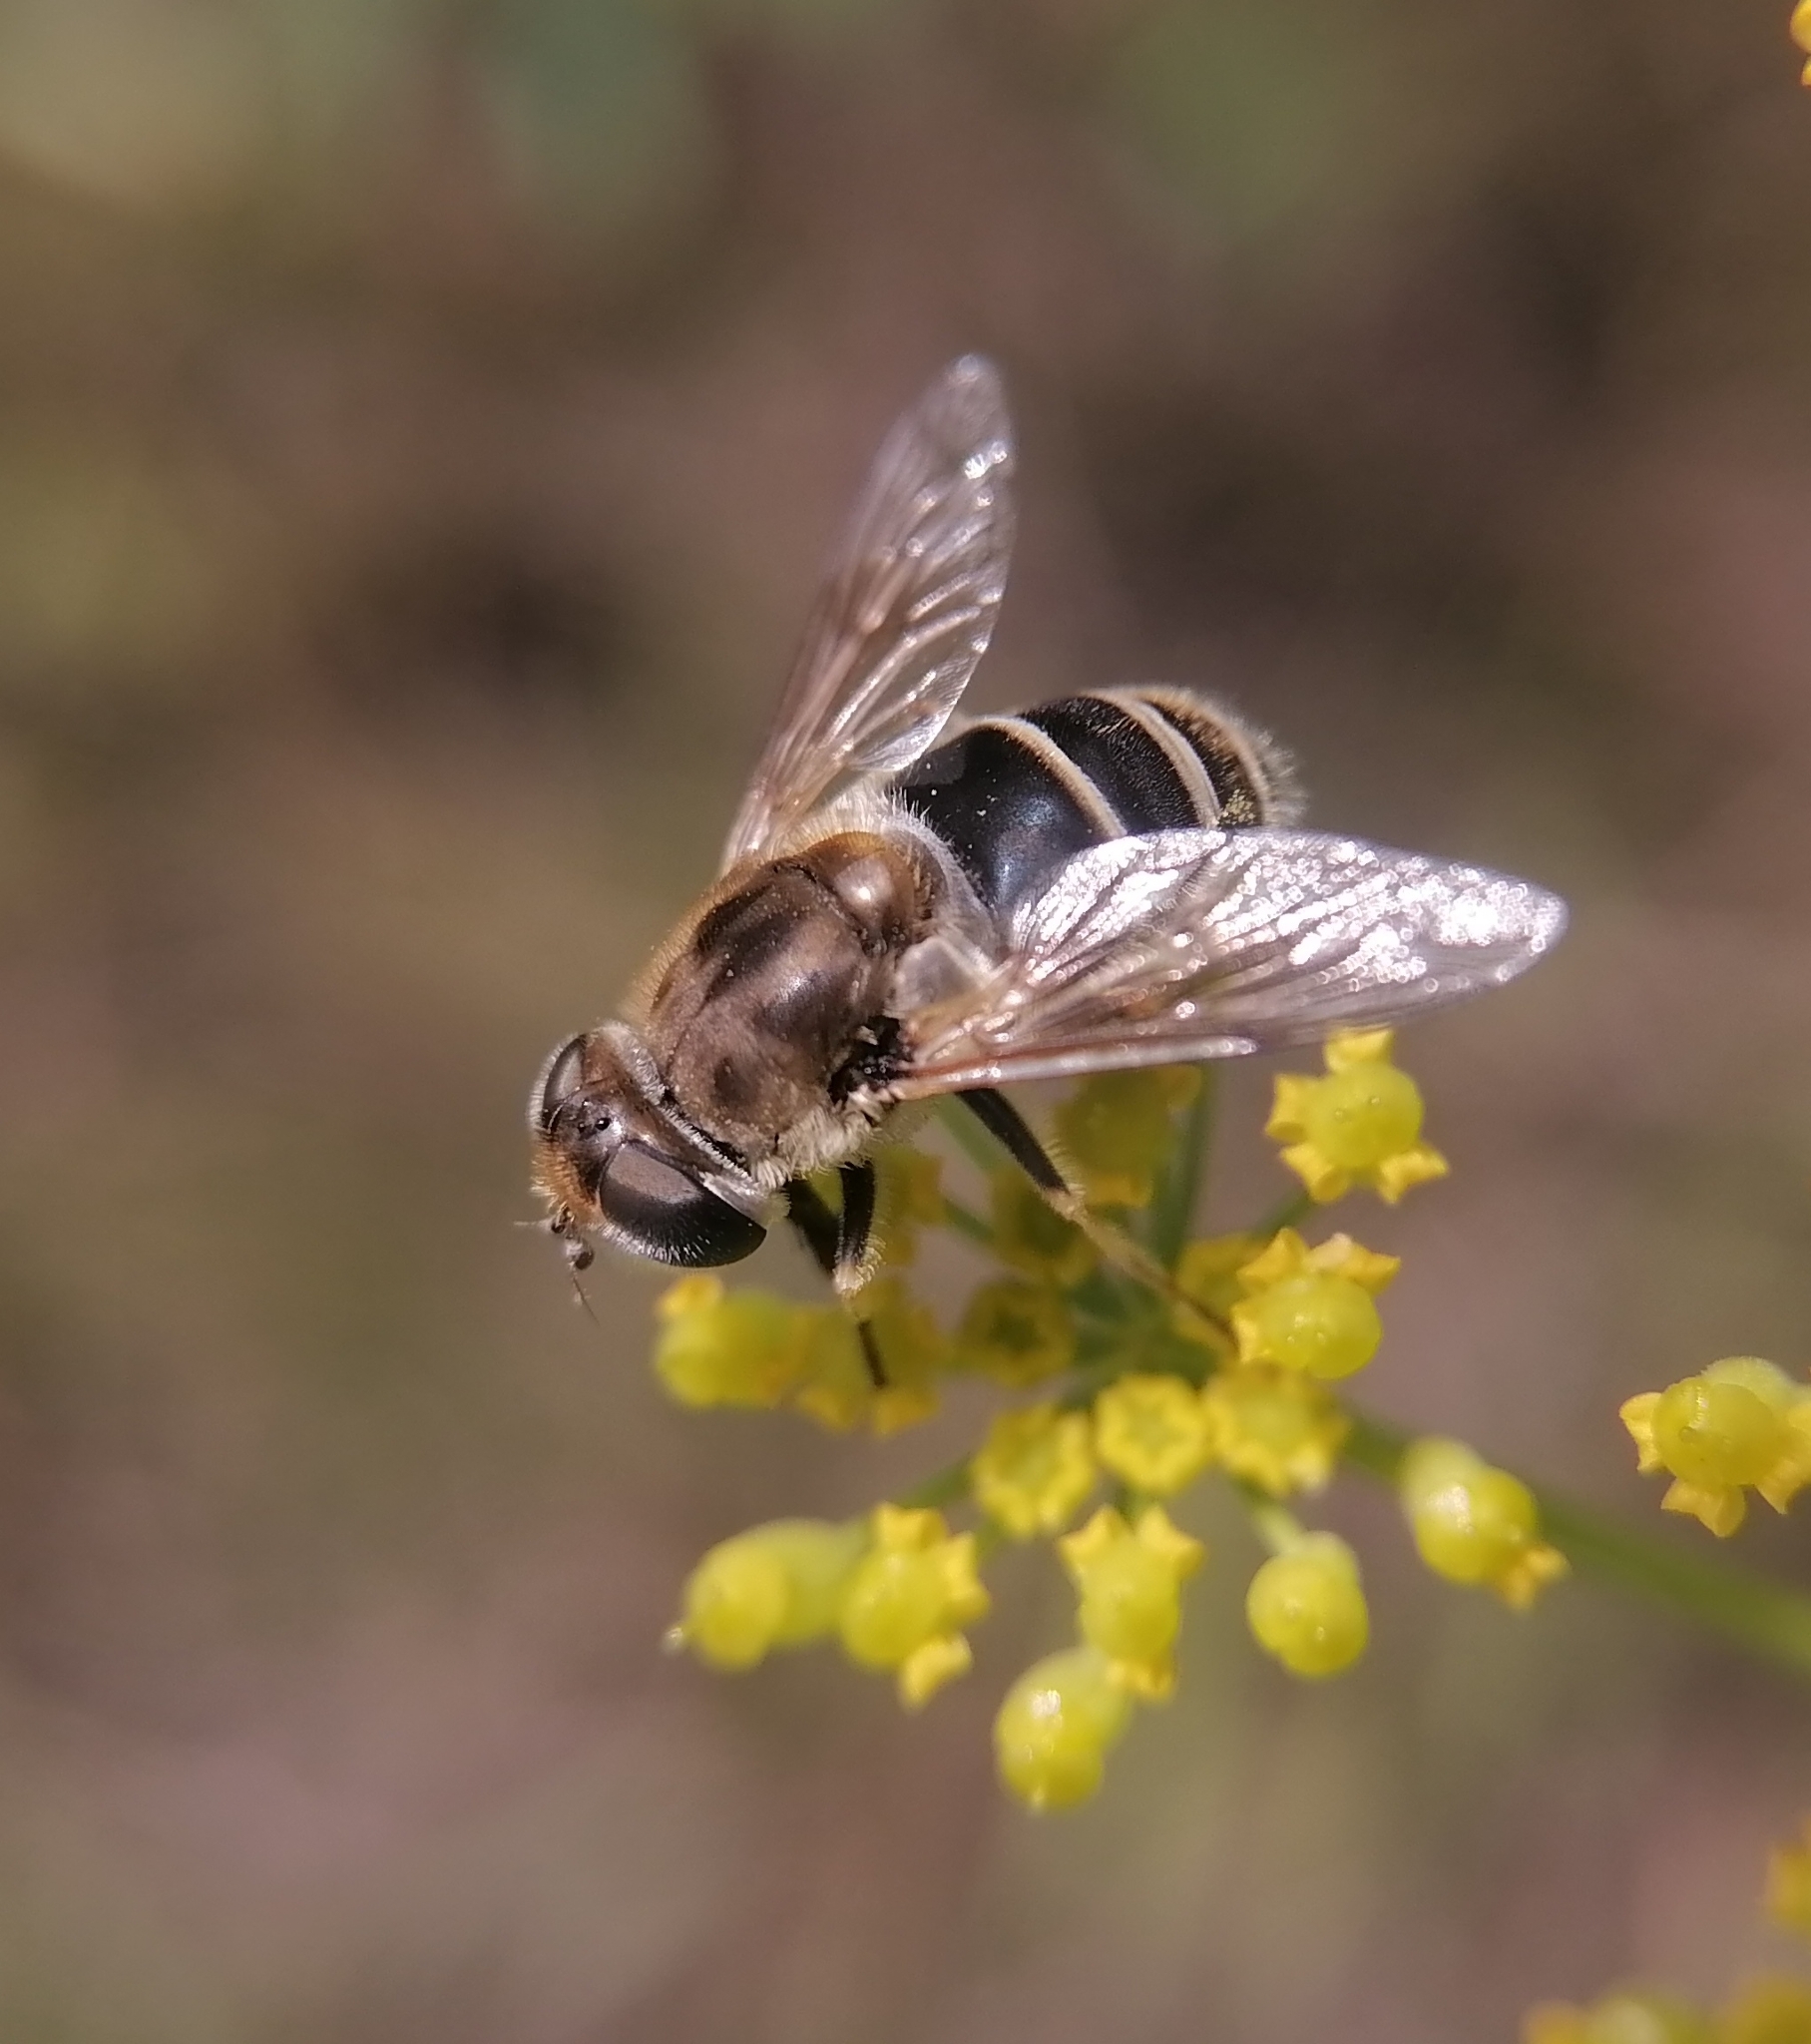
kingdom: Animalia
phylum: Arthropoda
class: Insecta
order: Diptera
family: Syrphidae
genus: Eristalis
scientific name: Eristalis arbustorum
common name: Hover fly
